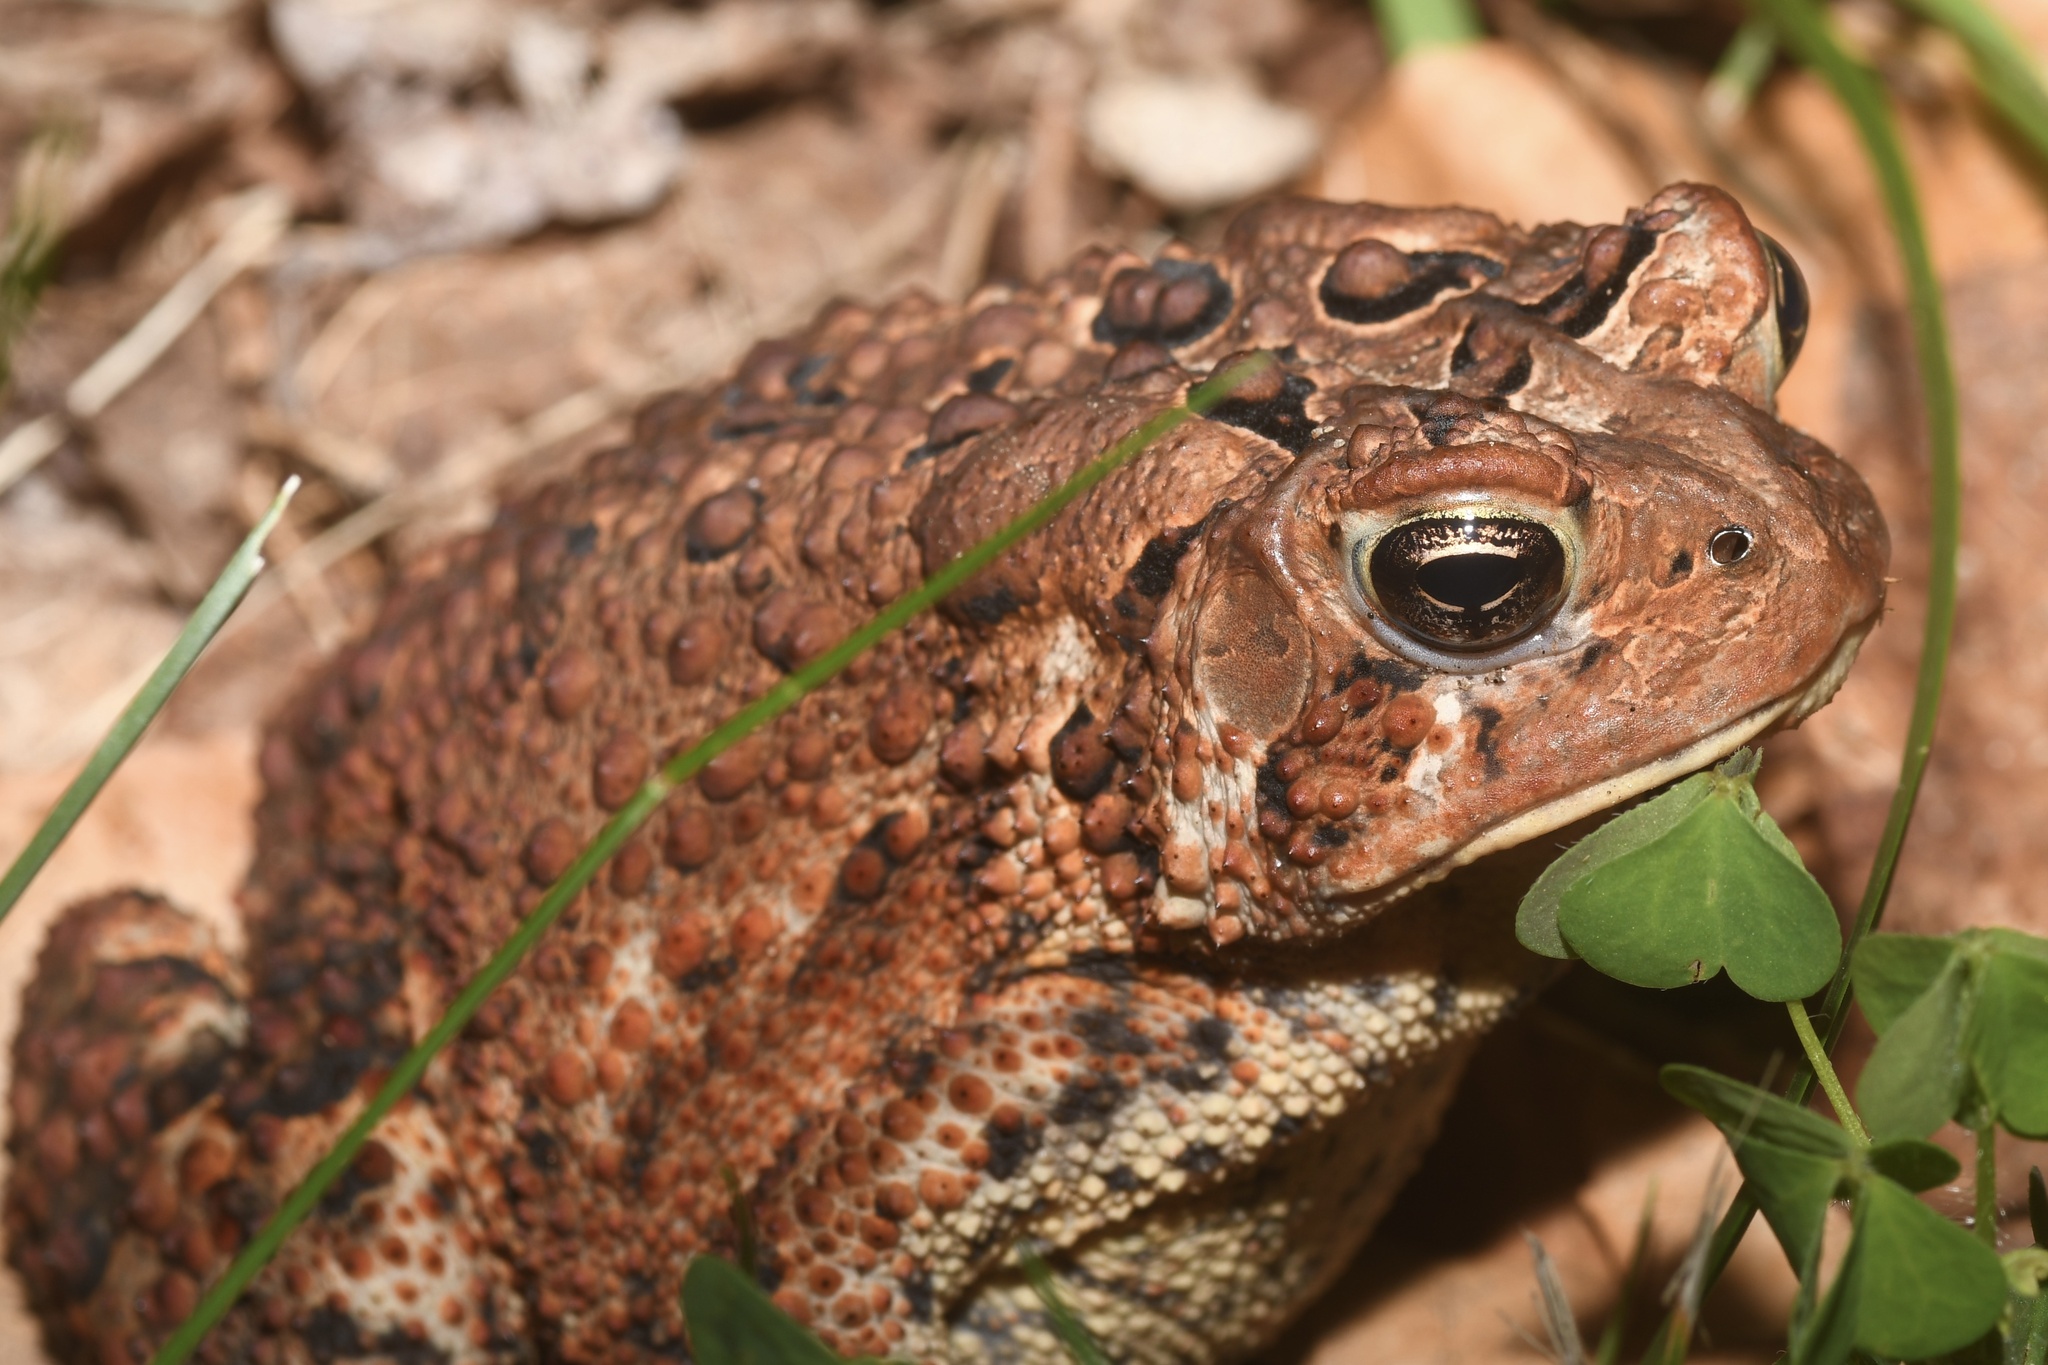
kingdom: Animalia
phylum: Chordata
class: Amphibia
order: Anura
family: Bufonidae
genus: Anaxyrus
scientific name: Anaxyrus americanus
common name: American toad
